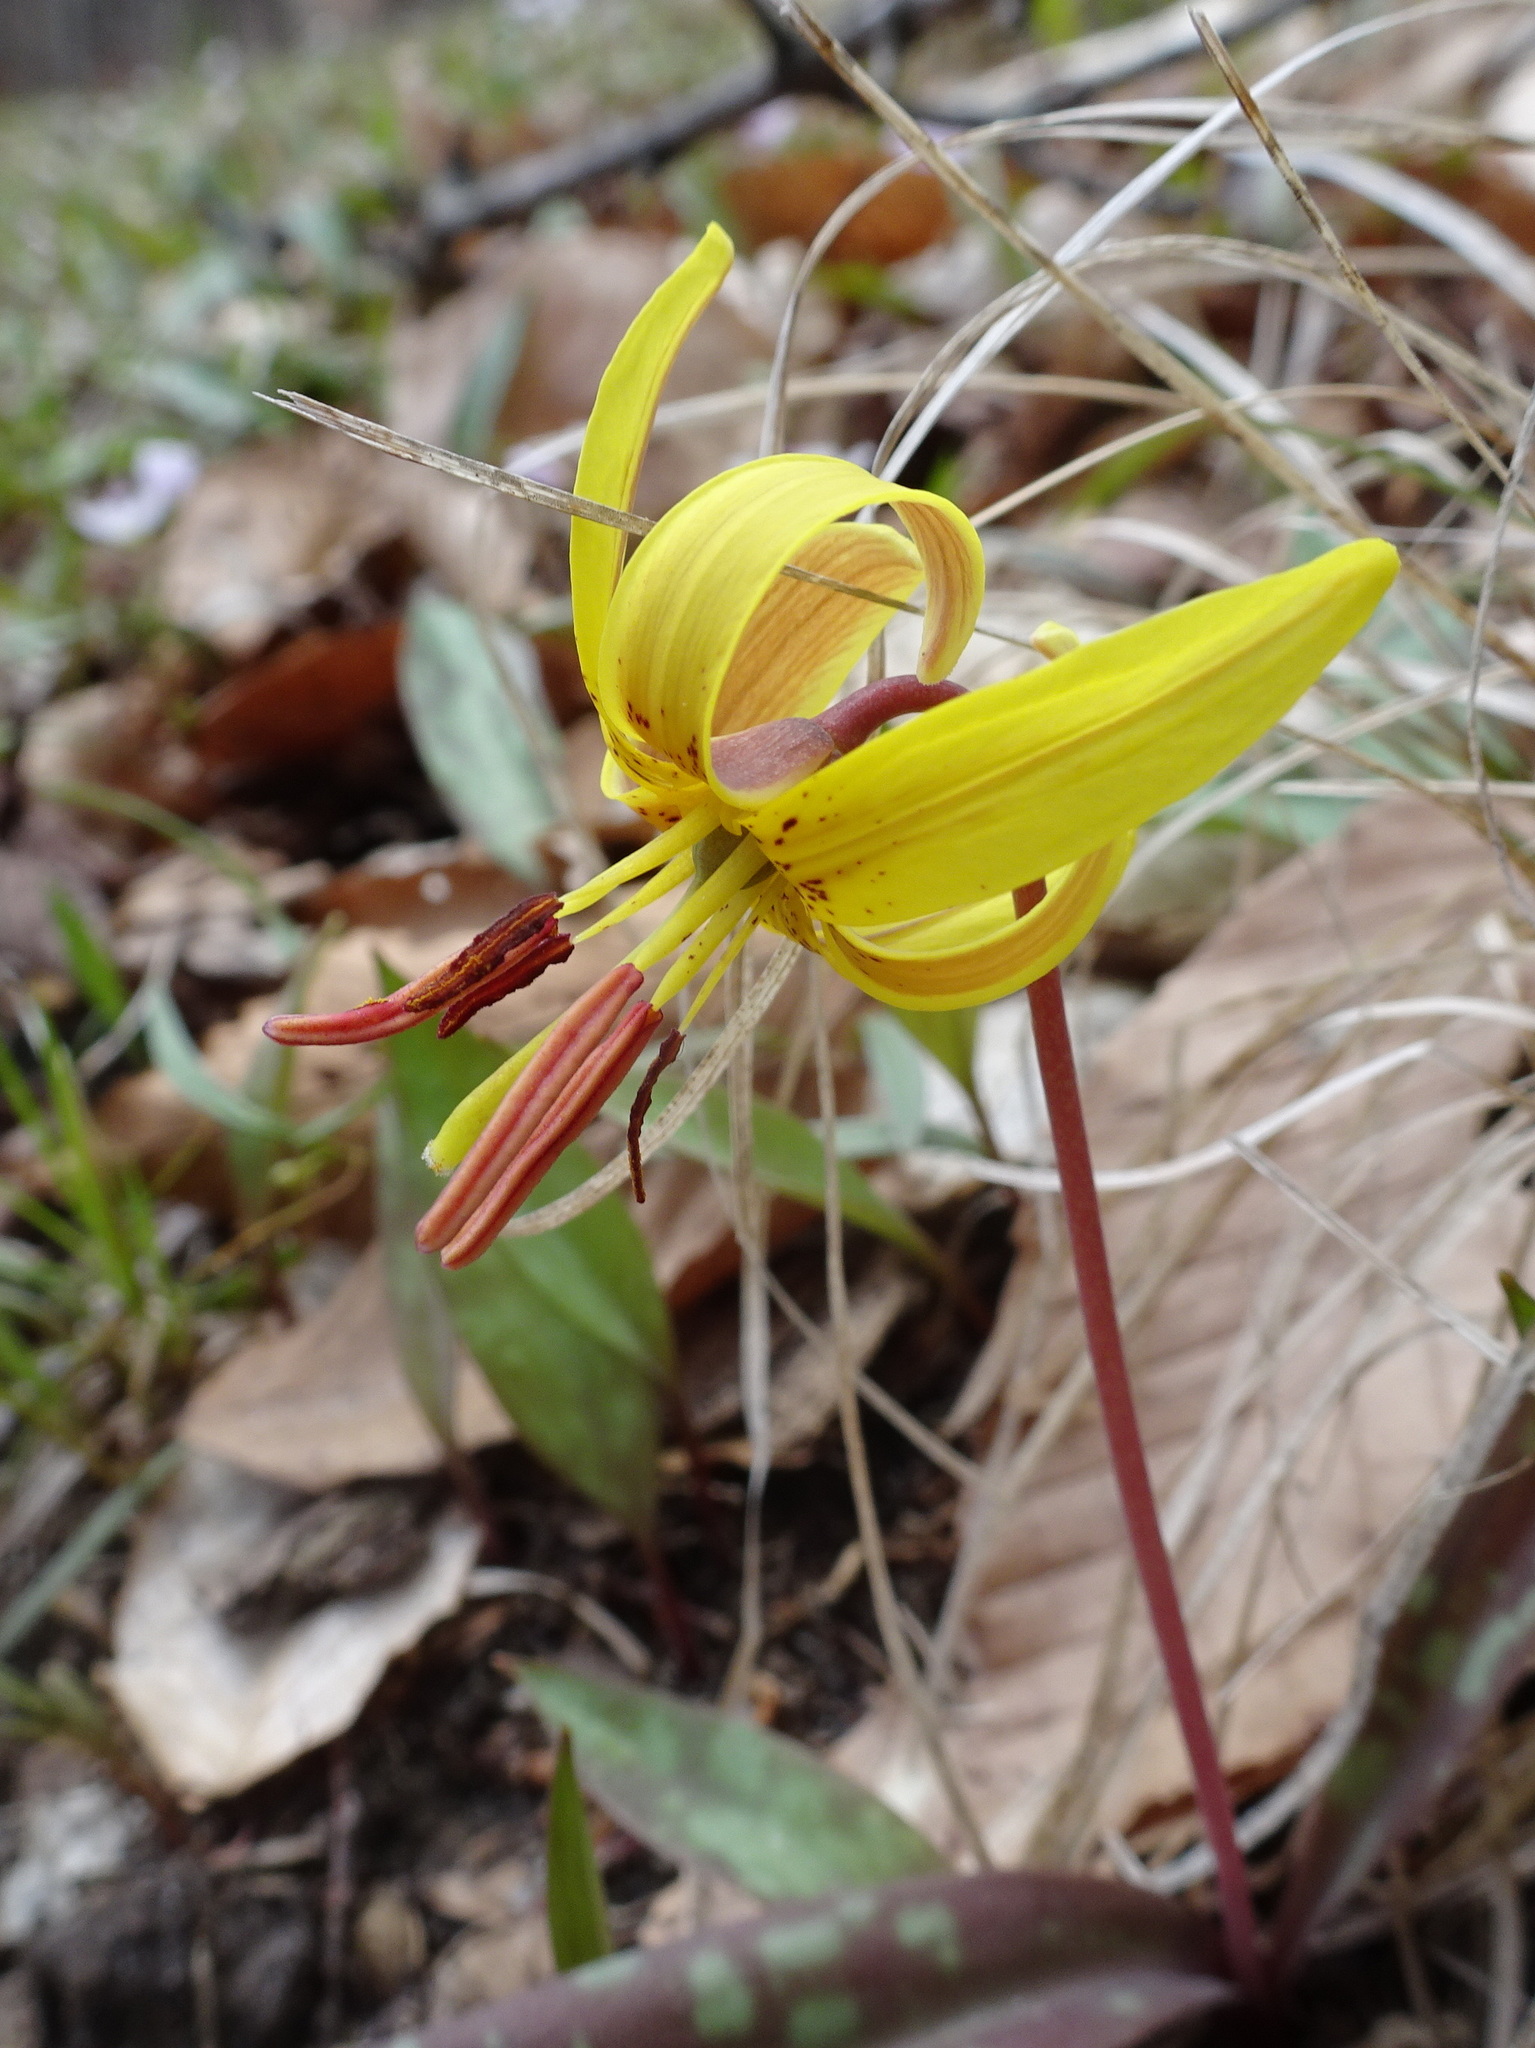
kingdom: Plantae
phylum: Tracheophyta
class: Liliopsida
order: Liliales
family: Liliaceae
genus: Erythronium
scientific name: Erythronium americanum
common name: Yellow adder's-tongue
